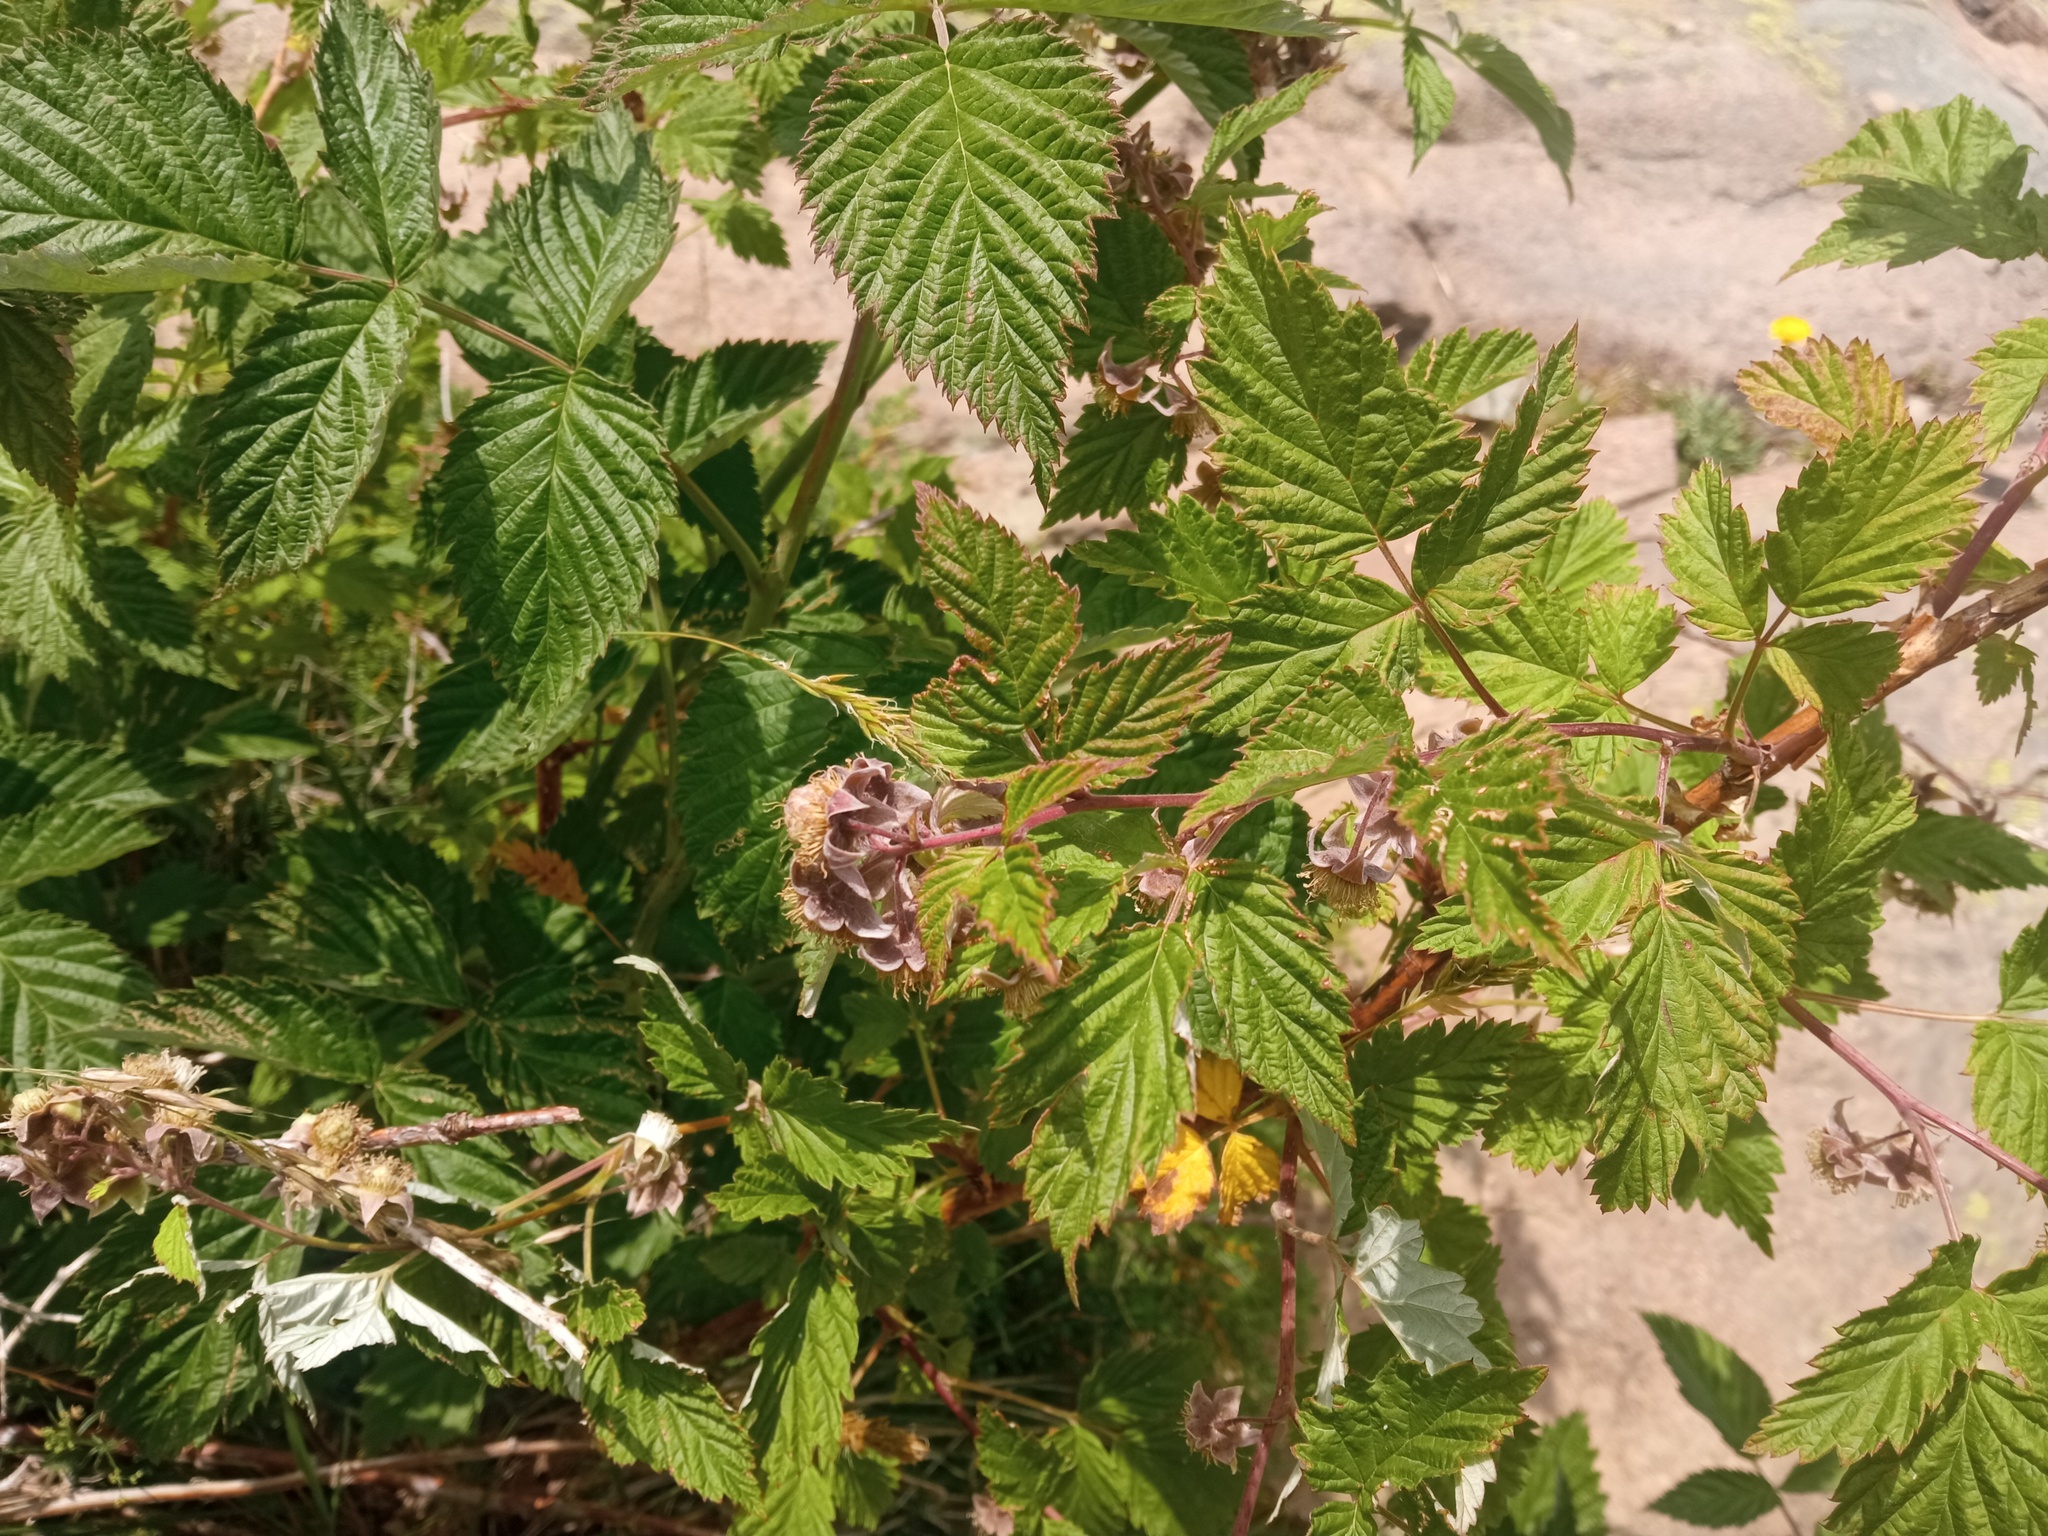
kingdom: Plantae
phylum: Tracheophyta
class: Magnoliopsida
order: Rosales
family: Rosaceae
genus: Rubus
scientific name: Rubus idaeus
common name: Raspberry
